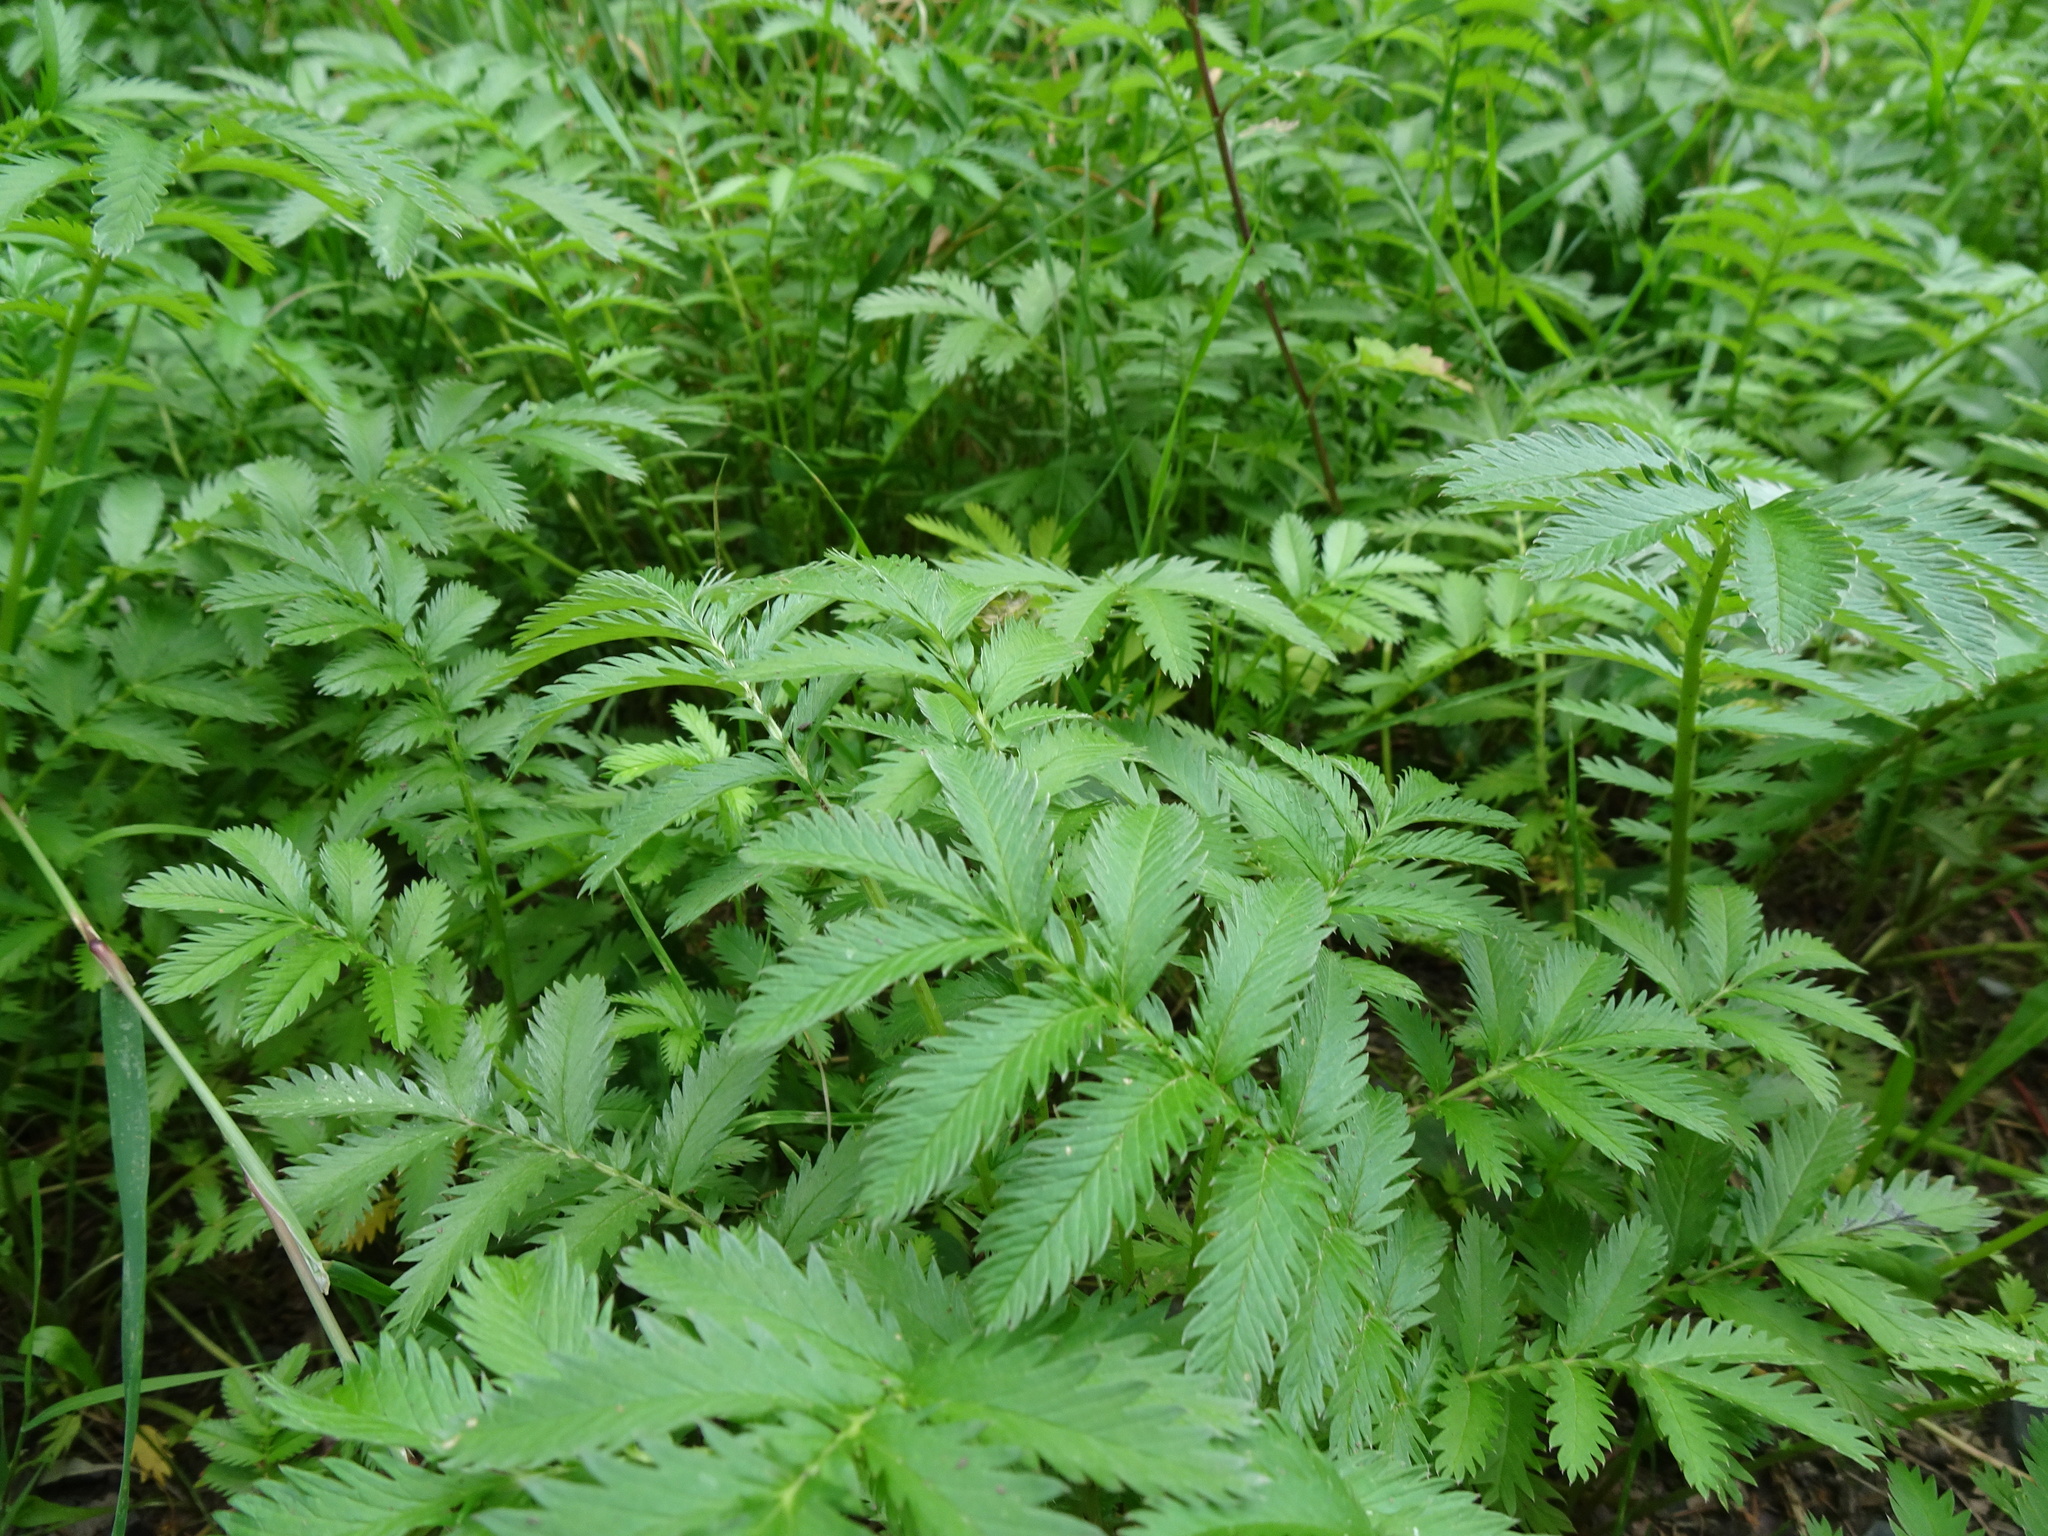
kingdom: Plantae
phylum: Tracheophyta
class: Magnoliopsida
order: Rosales
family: Rosaceae
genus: Argentina
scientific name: Argentina anserina
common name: Common silverweed
